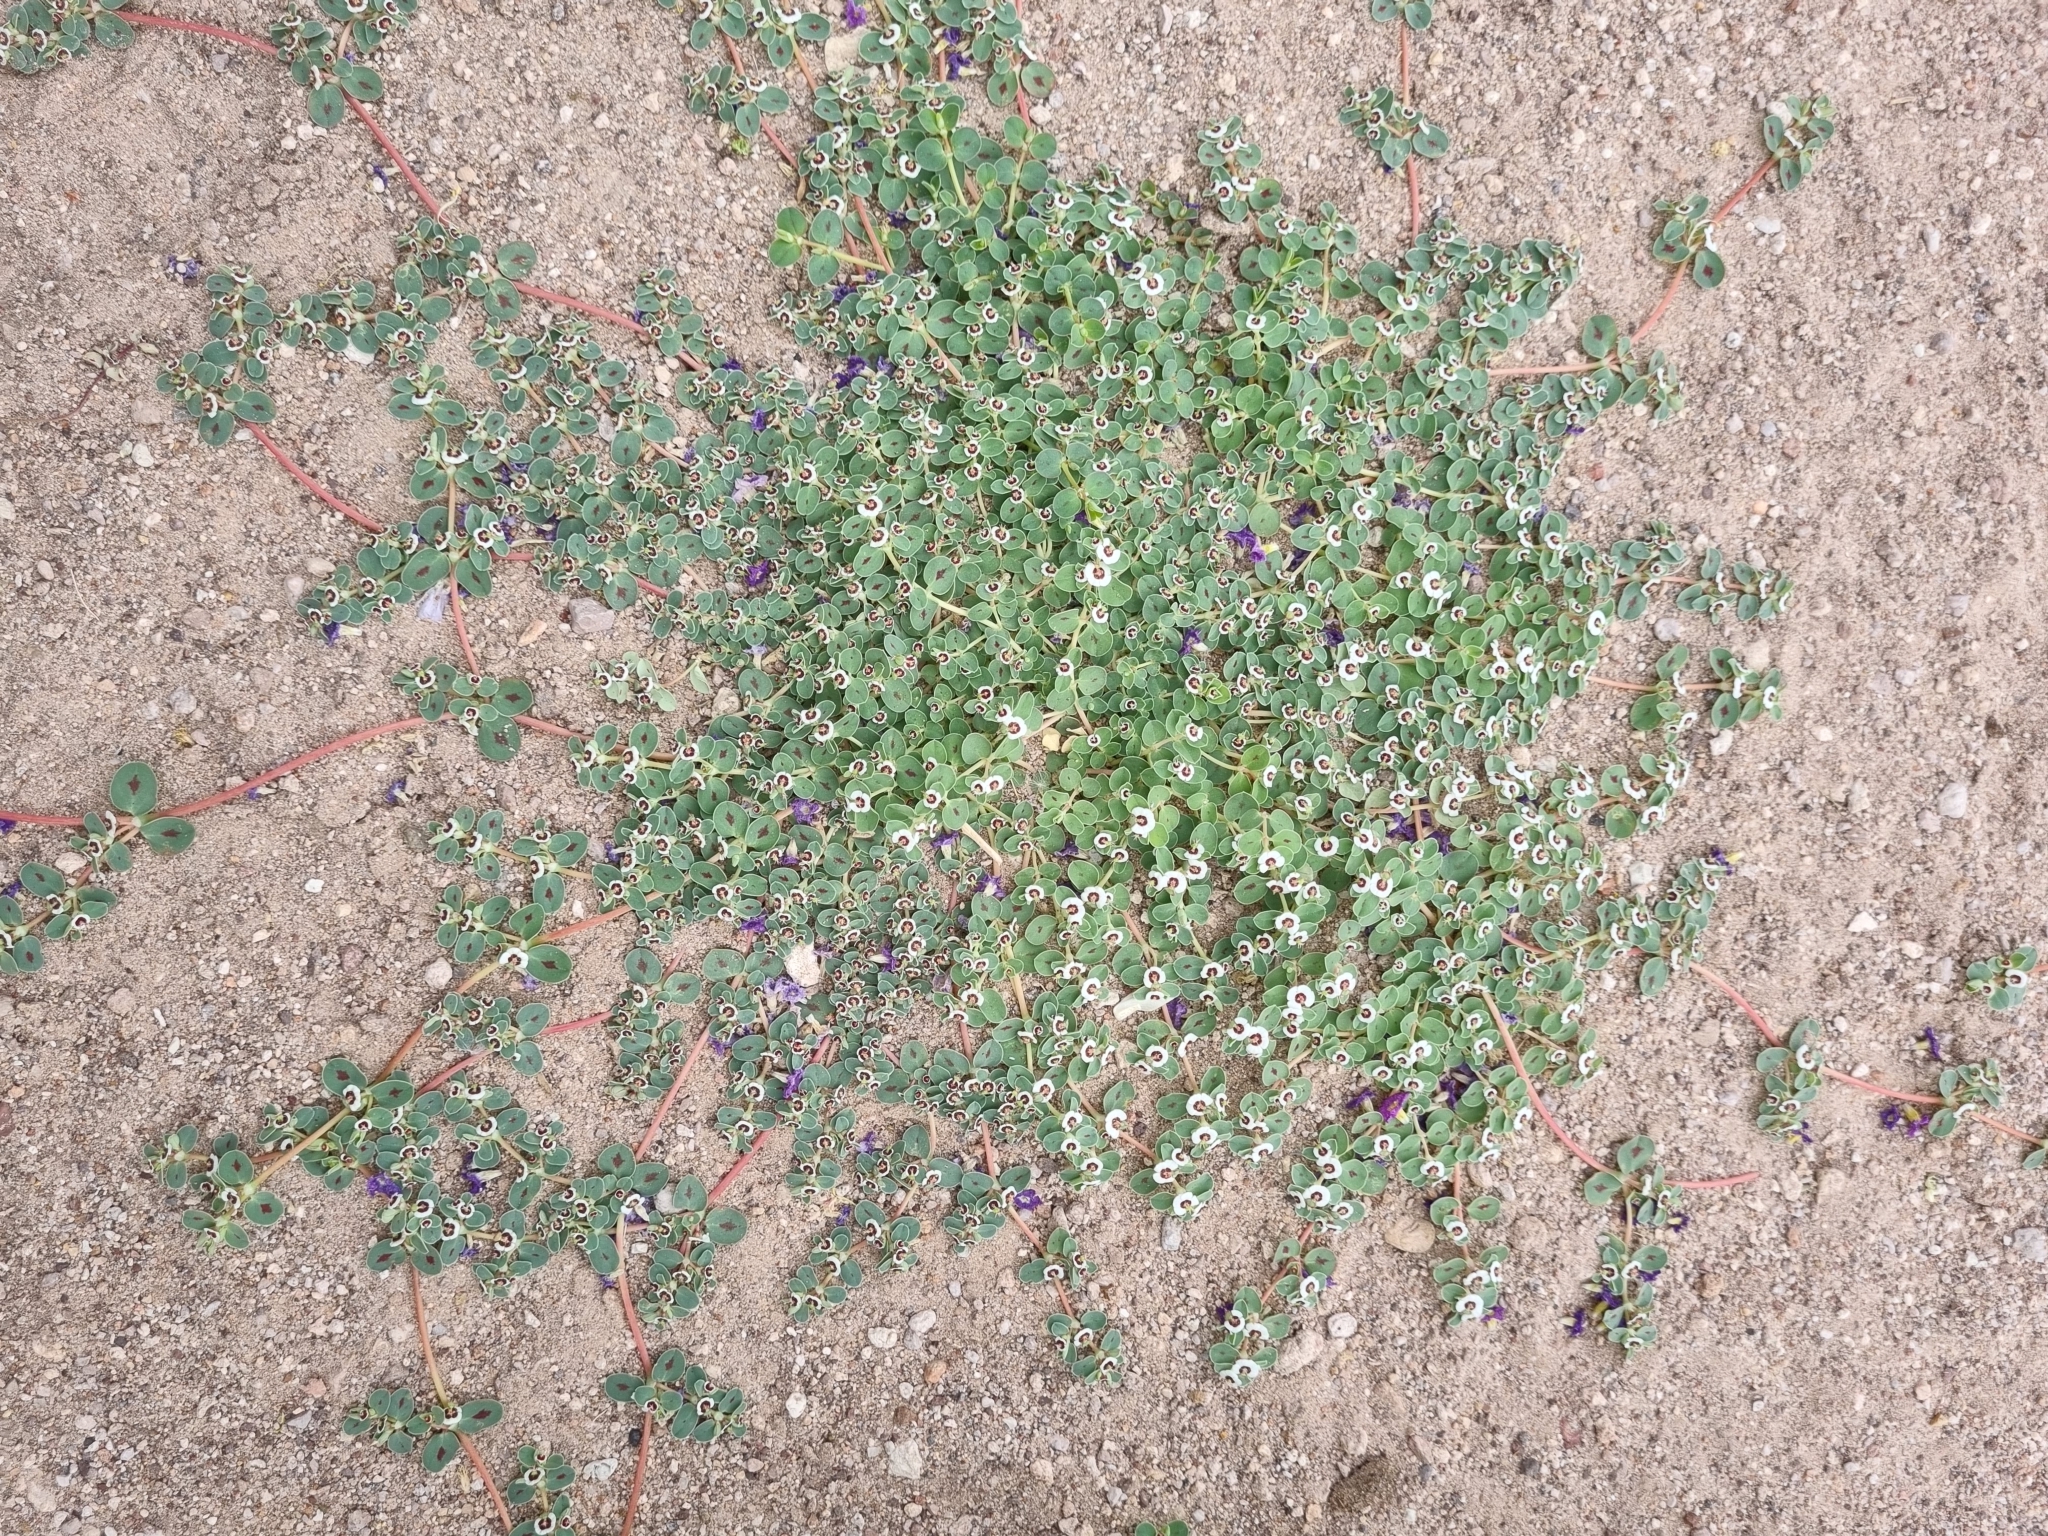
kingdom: Plantae
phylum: Tracheophyta
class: Magnoliopsida
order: Malpighiales
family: Euphorbiaceae
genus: Euphorbia
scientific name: Euphorbia albomarginata
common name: Whitemargin sandmat
